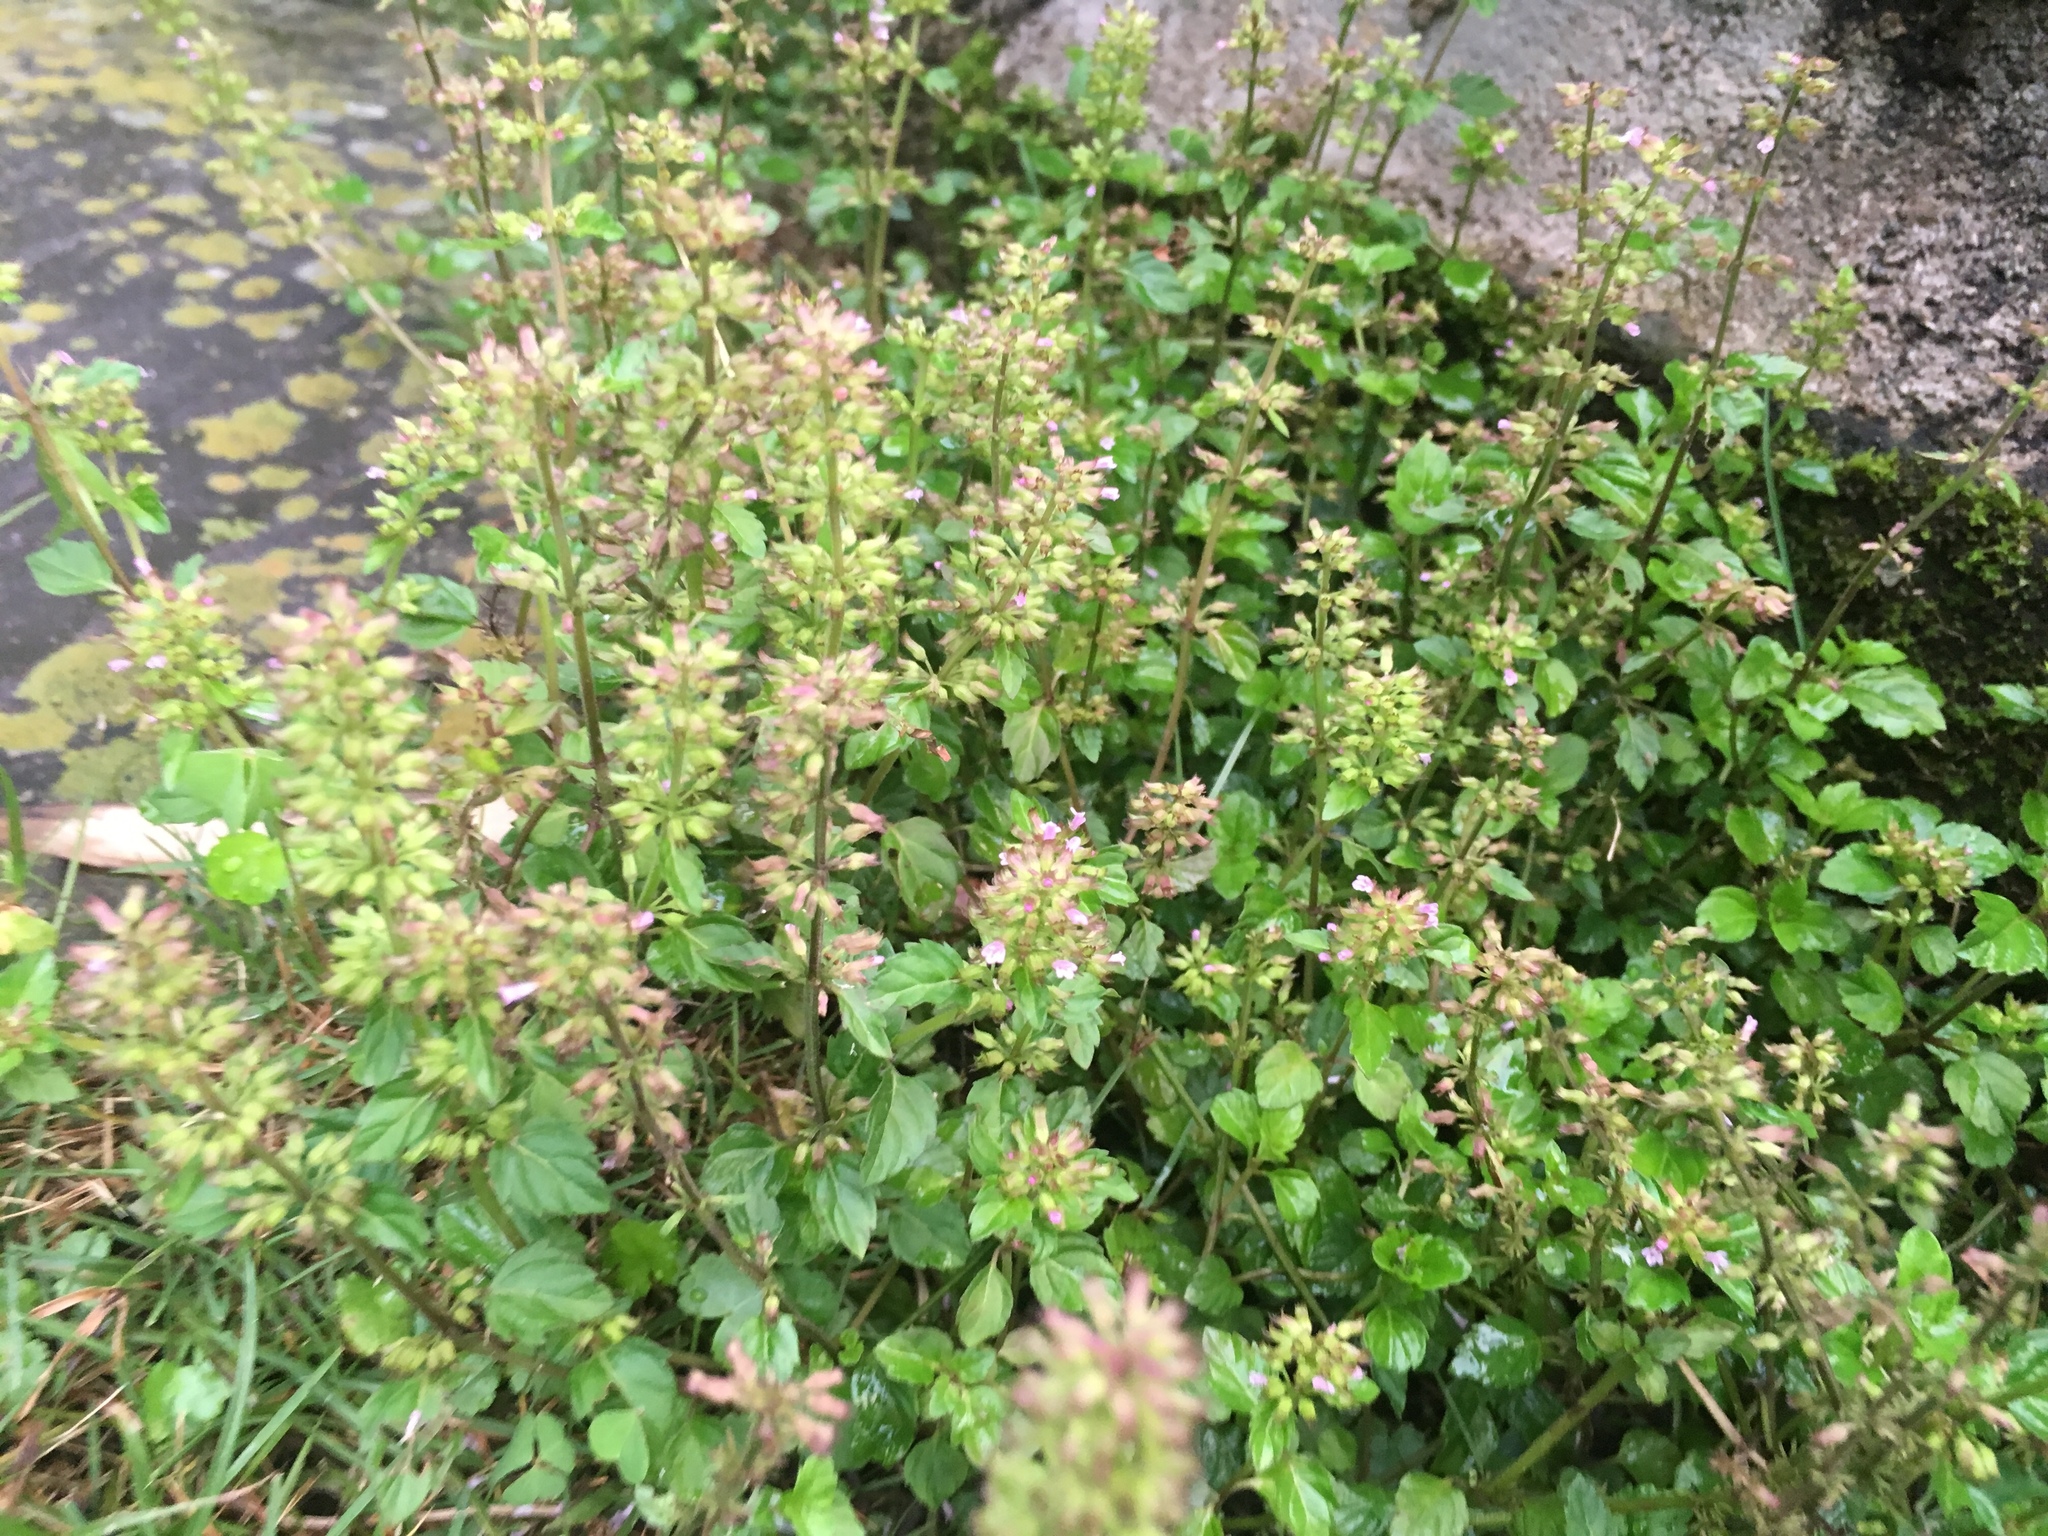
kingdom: Plantae
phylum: Tracheophyta
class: Magnoliopsida
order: Lamiales
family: Lamiaceae
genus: Clinopodium
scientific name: Clinopodium gracile
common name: Slender wild basil
